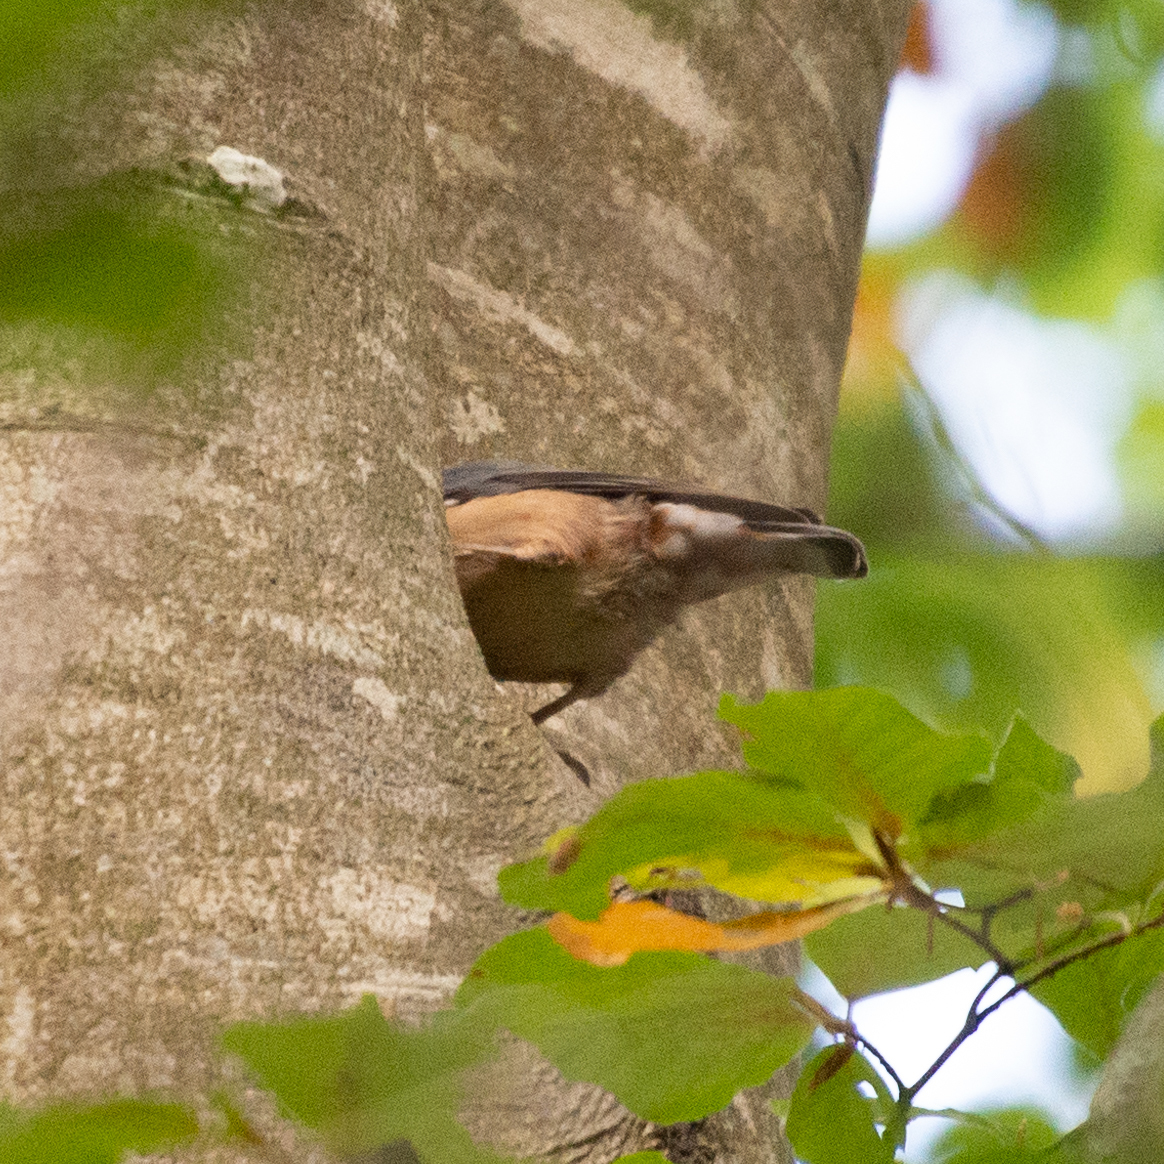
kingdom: Animalia
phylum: Chordata
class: Aves
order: Passeriformes
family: Sittidae
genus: Sitta
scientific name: Sitta europaea
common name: Eurasian nuthatch
